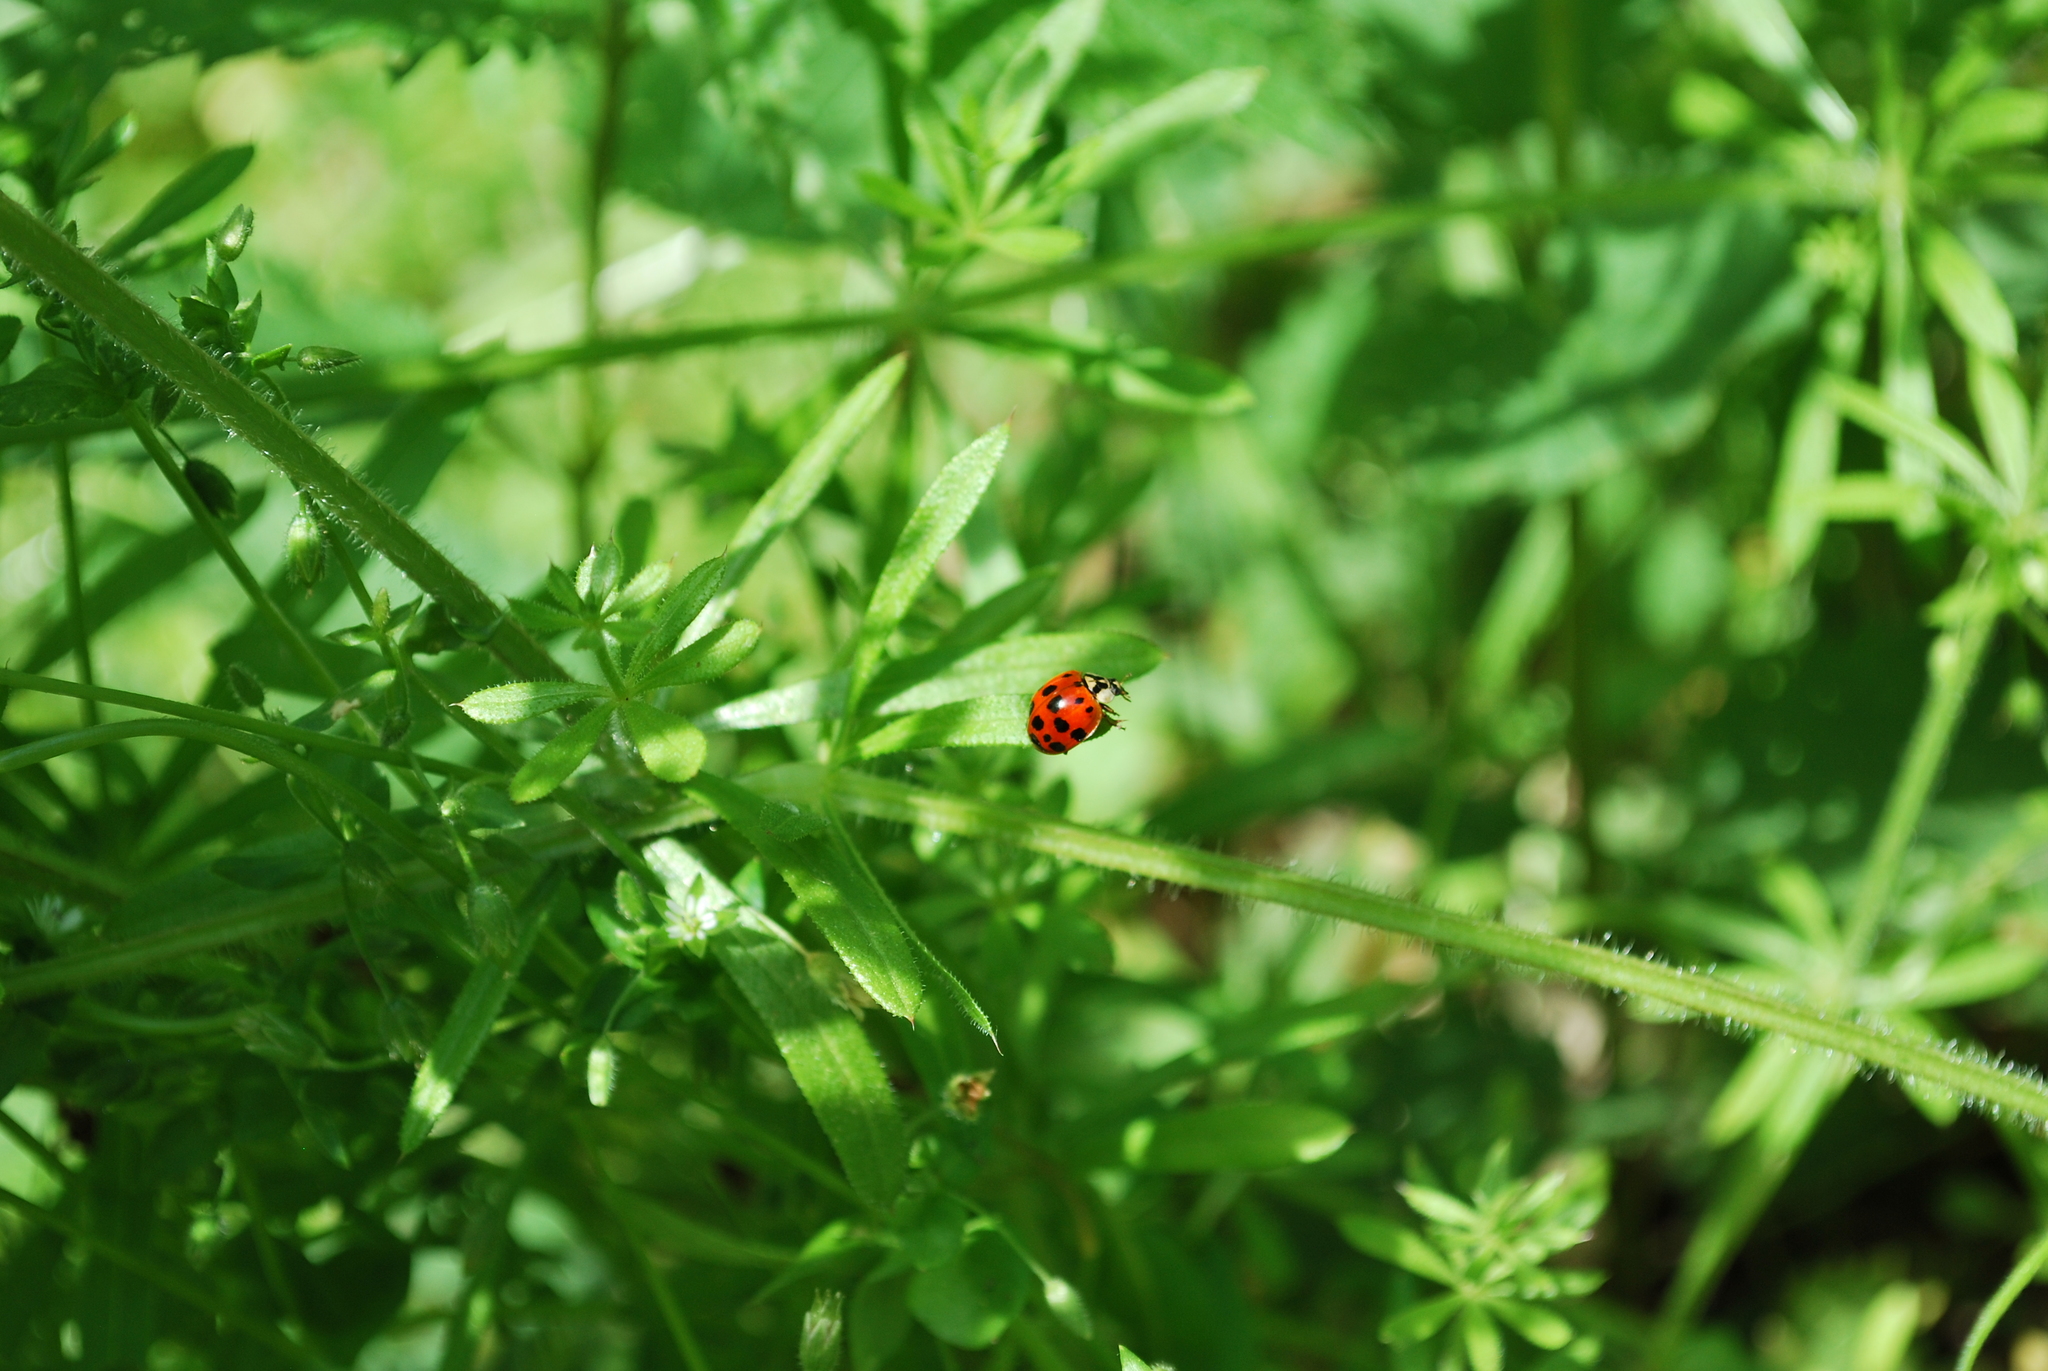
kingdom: Animalia
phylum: Arthropoda
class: Insecta
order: Coleoptera
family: Coccinellidae
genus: Harmonia
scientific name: Harmonia axyridis
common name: Harlequin ladybird
